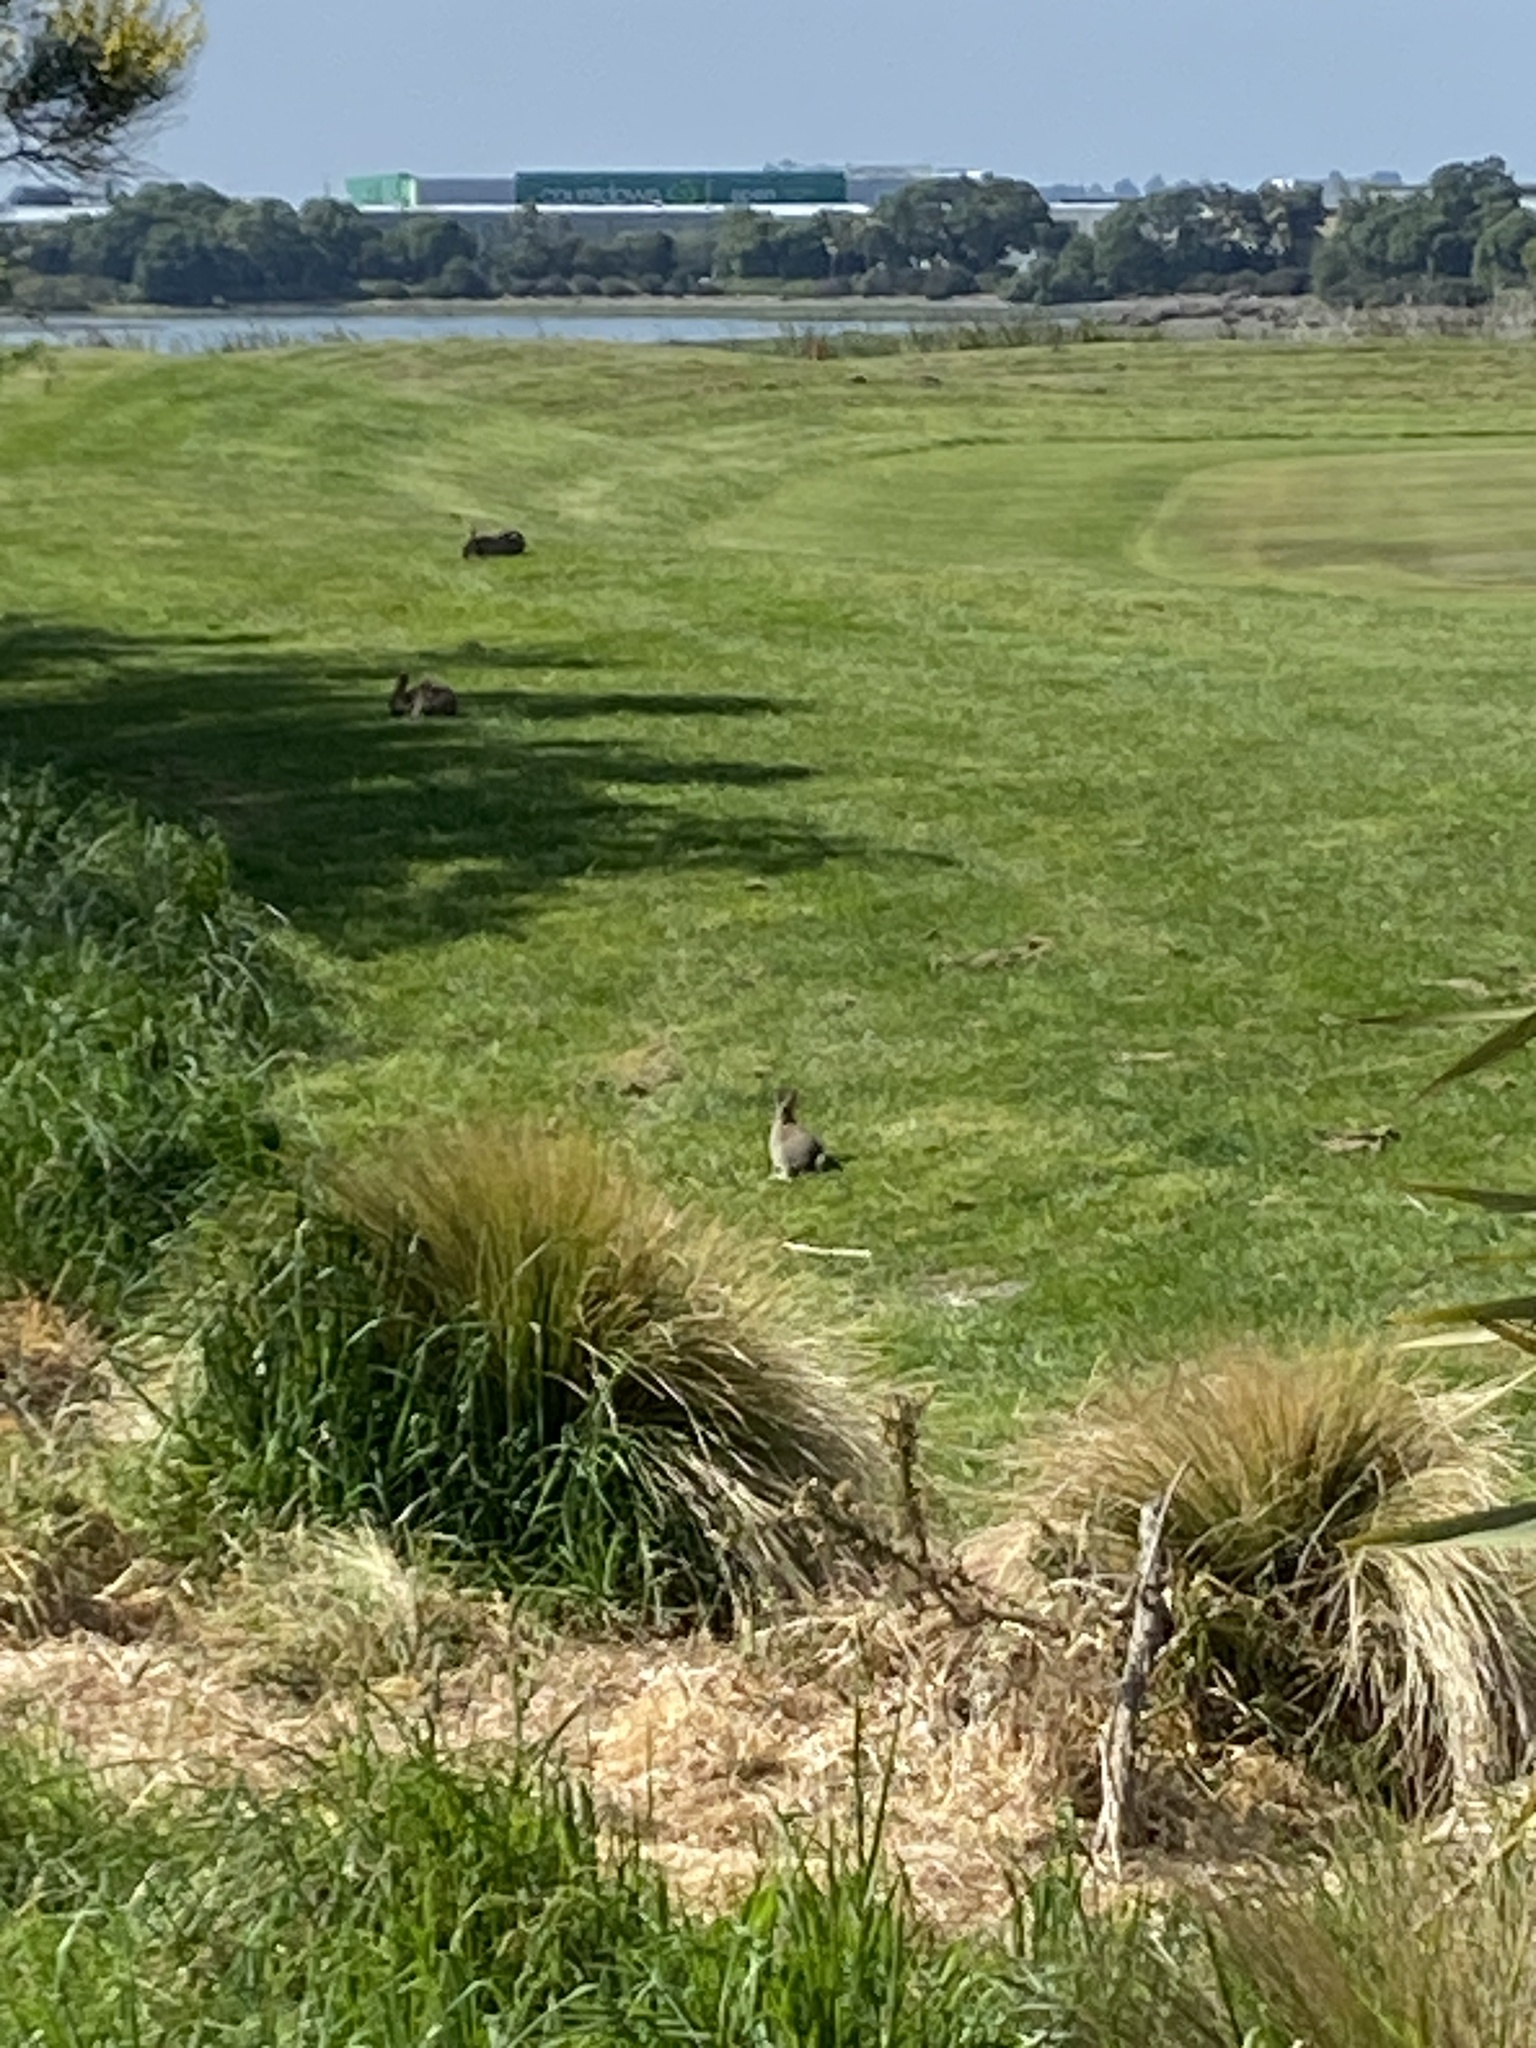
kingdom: Animalia
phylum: Chordata
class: Mammalia
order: Lagomorpha
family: Leporidae
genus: Oryctolagus
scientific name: Oryctolagus cuniculus
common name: European rabbit
